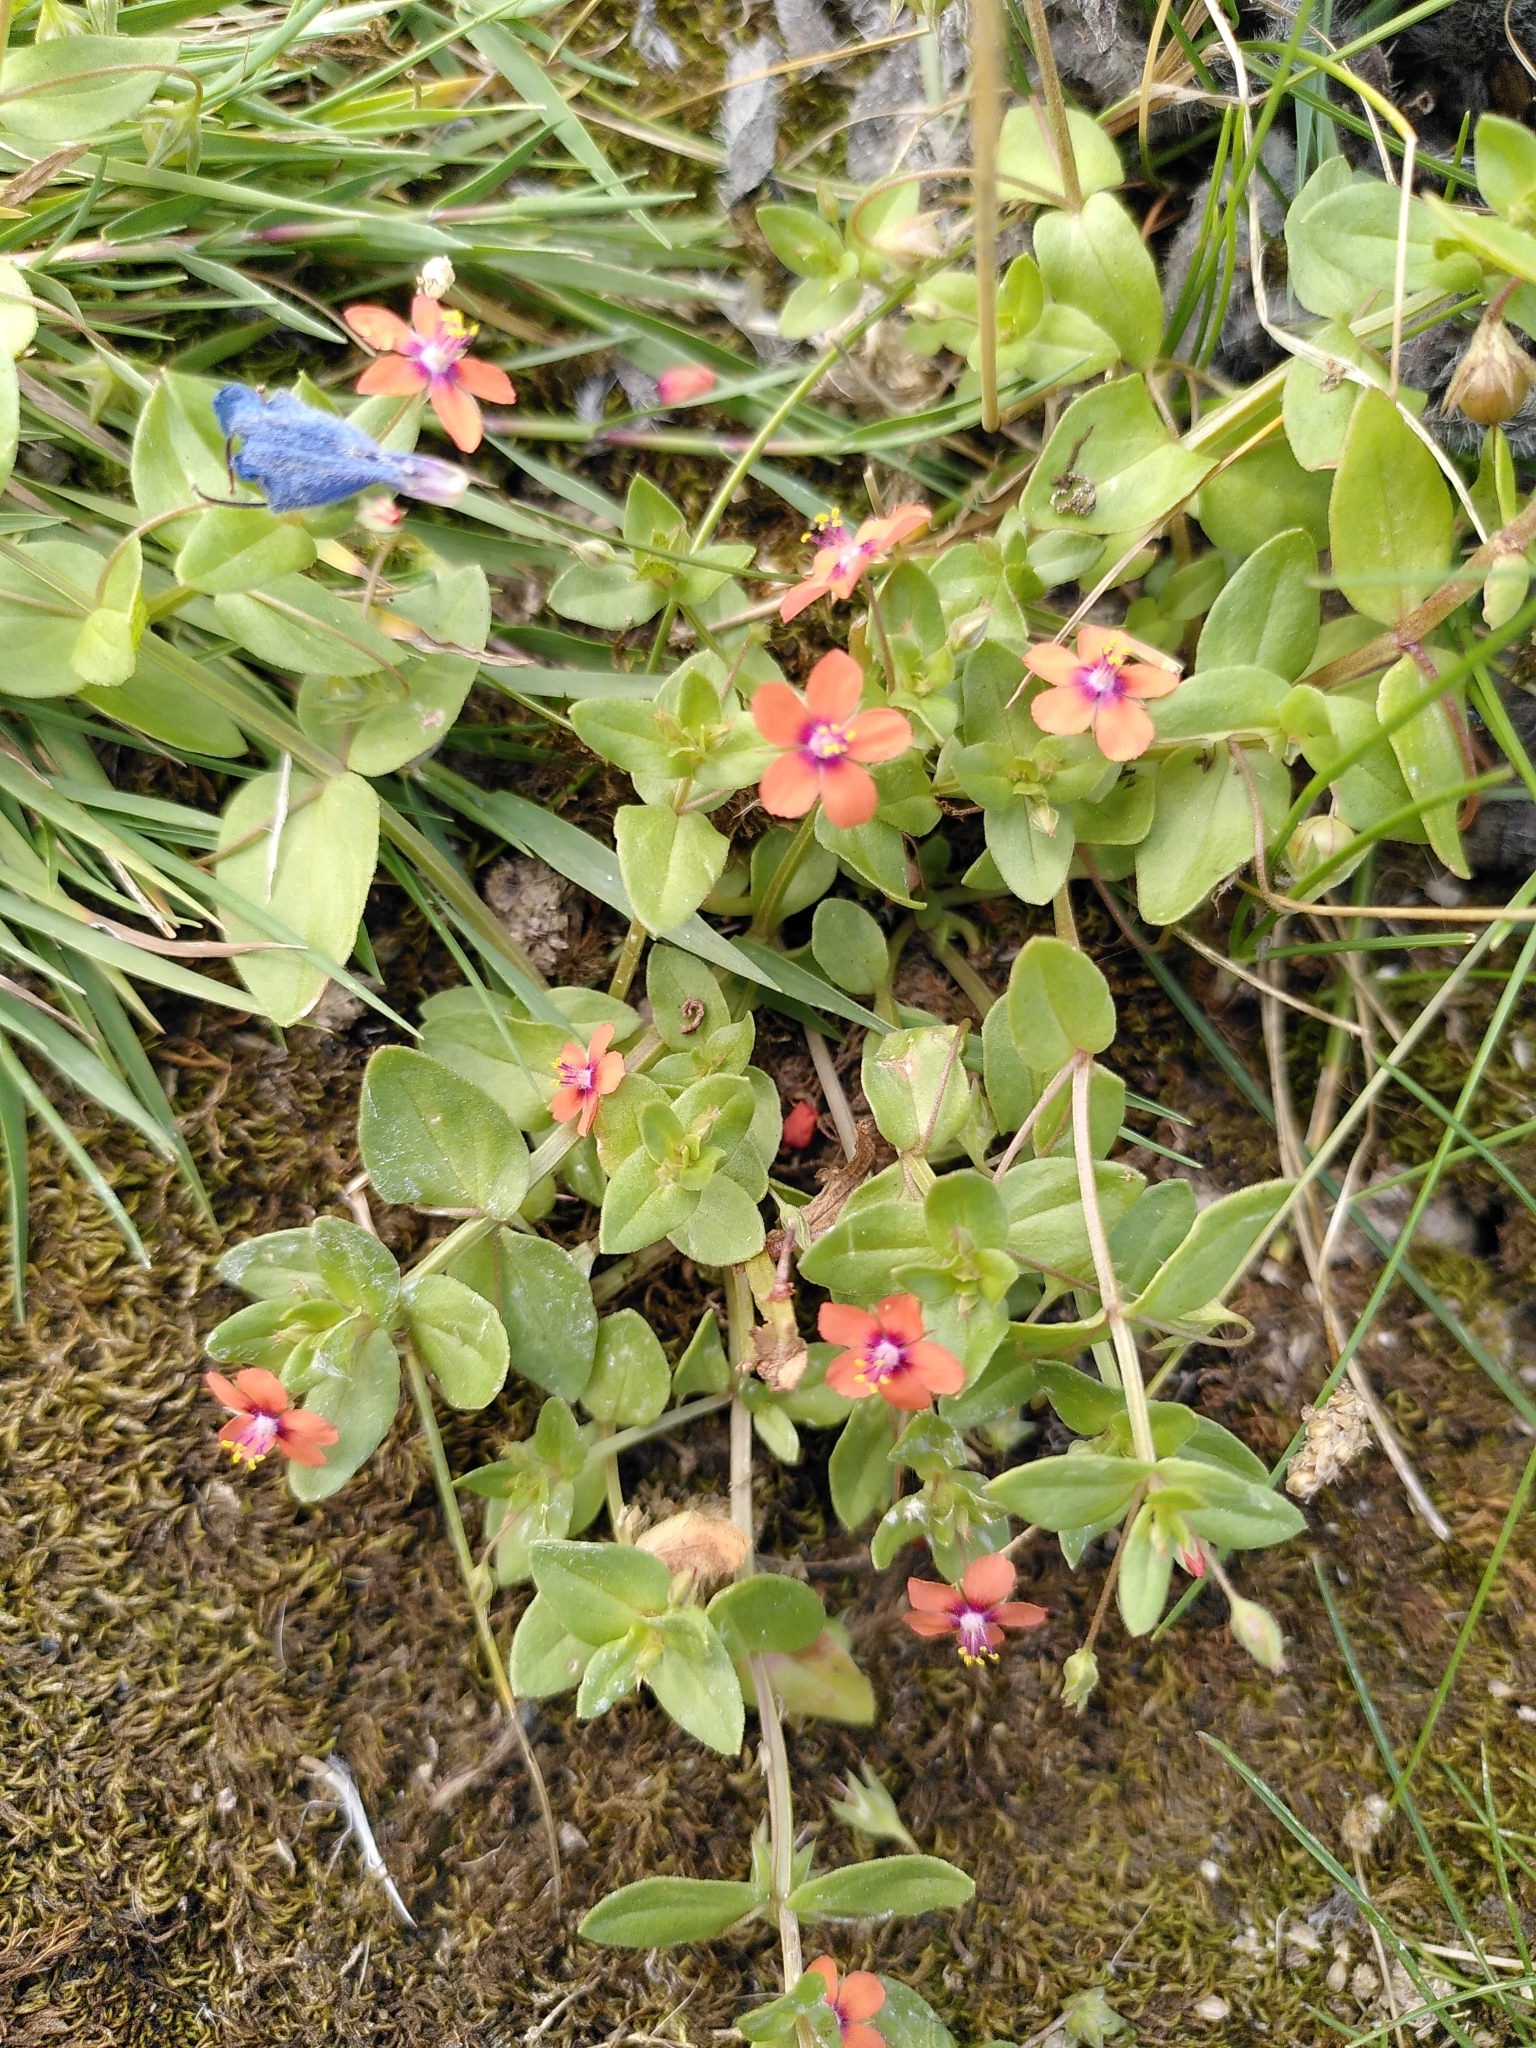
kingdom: Plantae
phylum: Tracheophyta
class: Magnoliopsida
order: Ericales
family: Primulaceae
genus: Lysimachia
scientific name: Lysimachia arvensis
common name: Scarlet pimpernel
